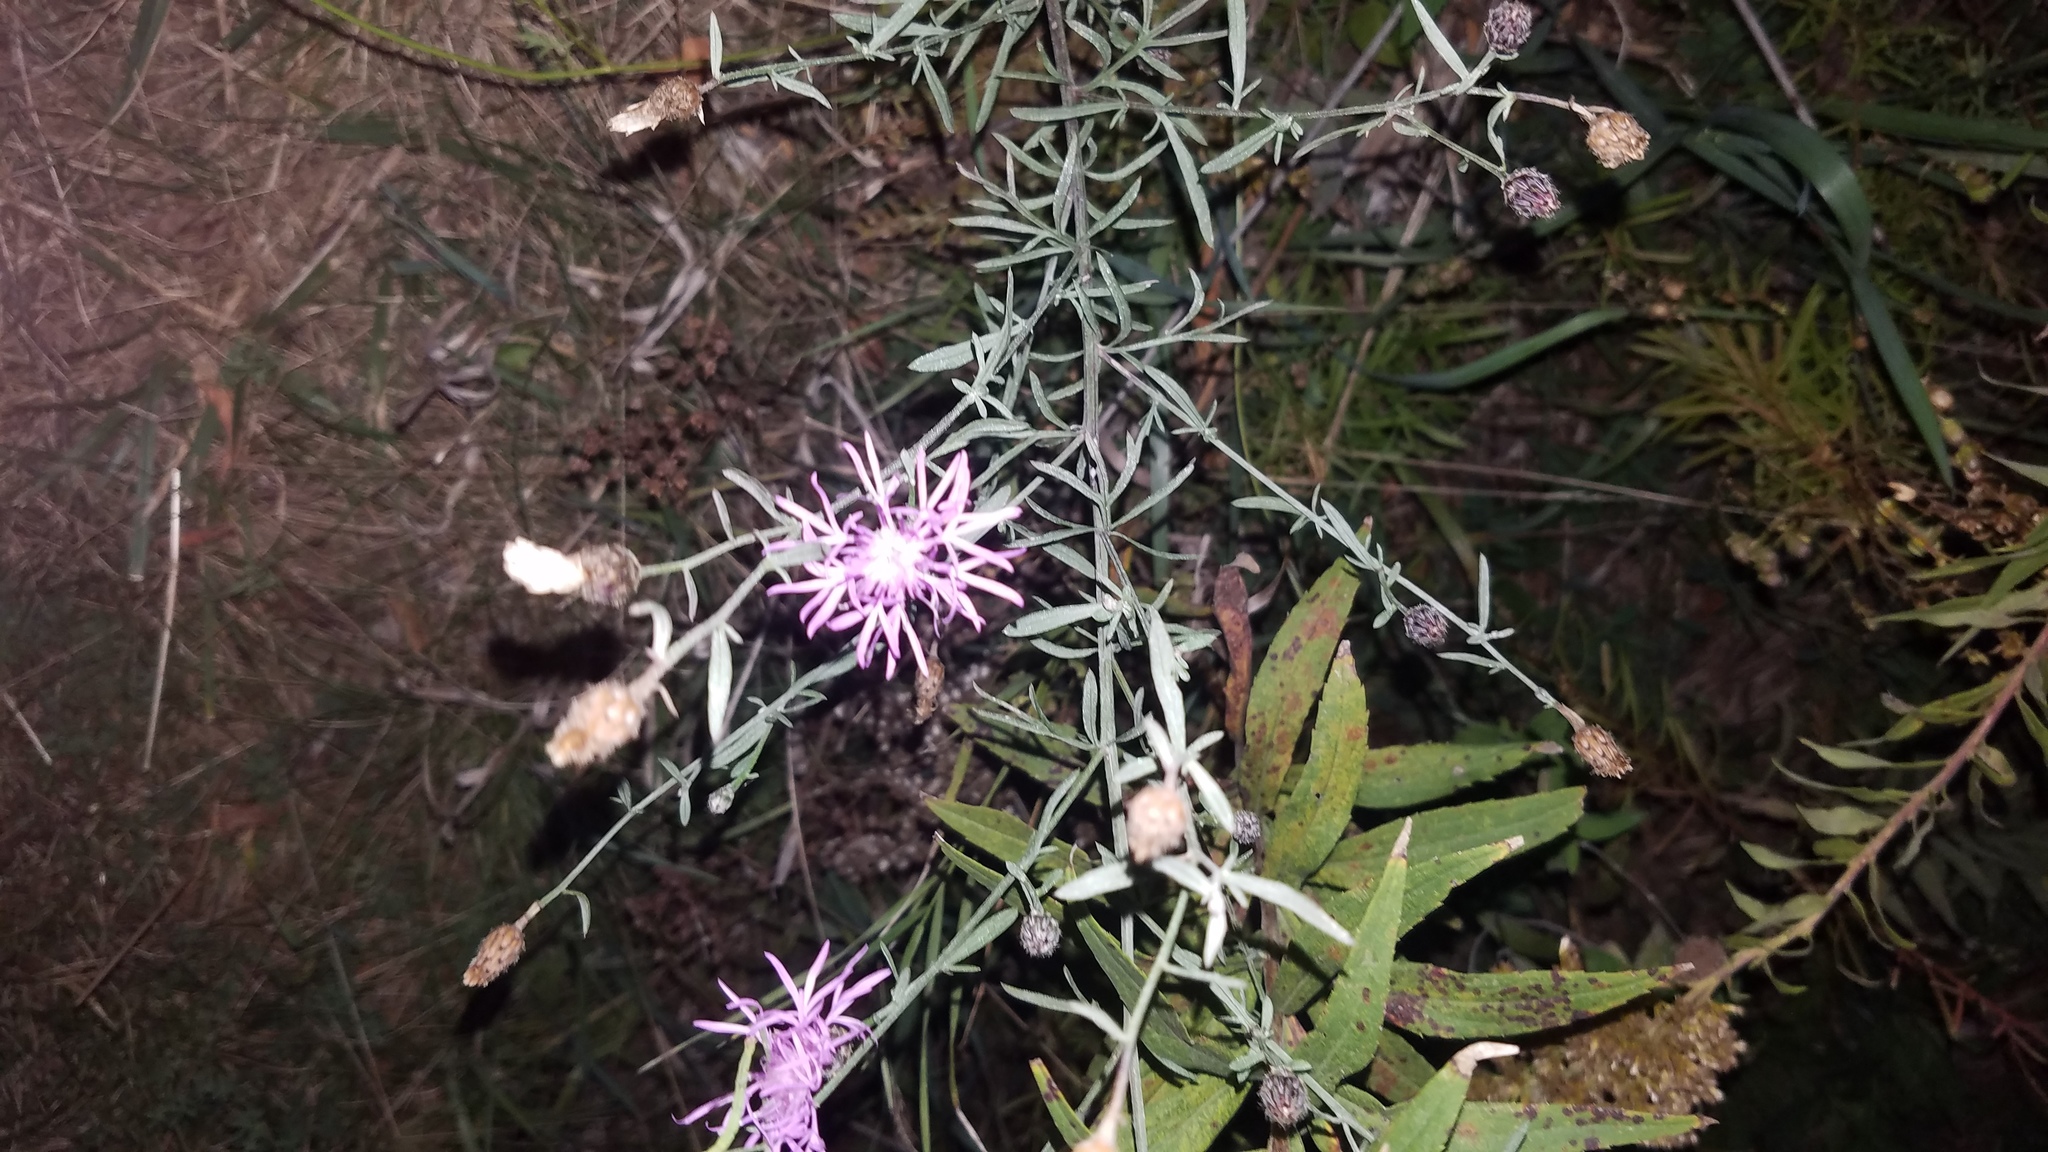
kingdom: Plantae
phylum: Tracheophyta
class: Magnoliopsida
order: Asterales
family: Asteraceae
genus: Centaurea
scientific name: Centaurea stoebe
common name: Spotted knapweed
